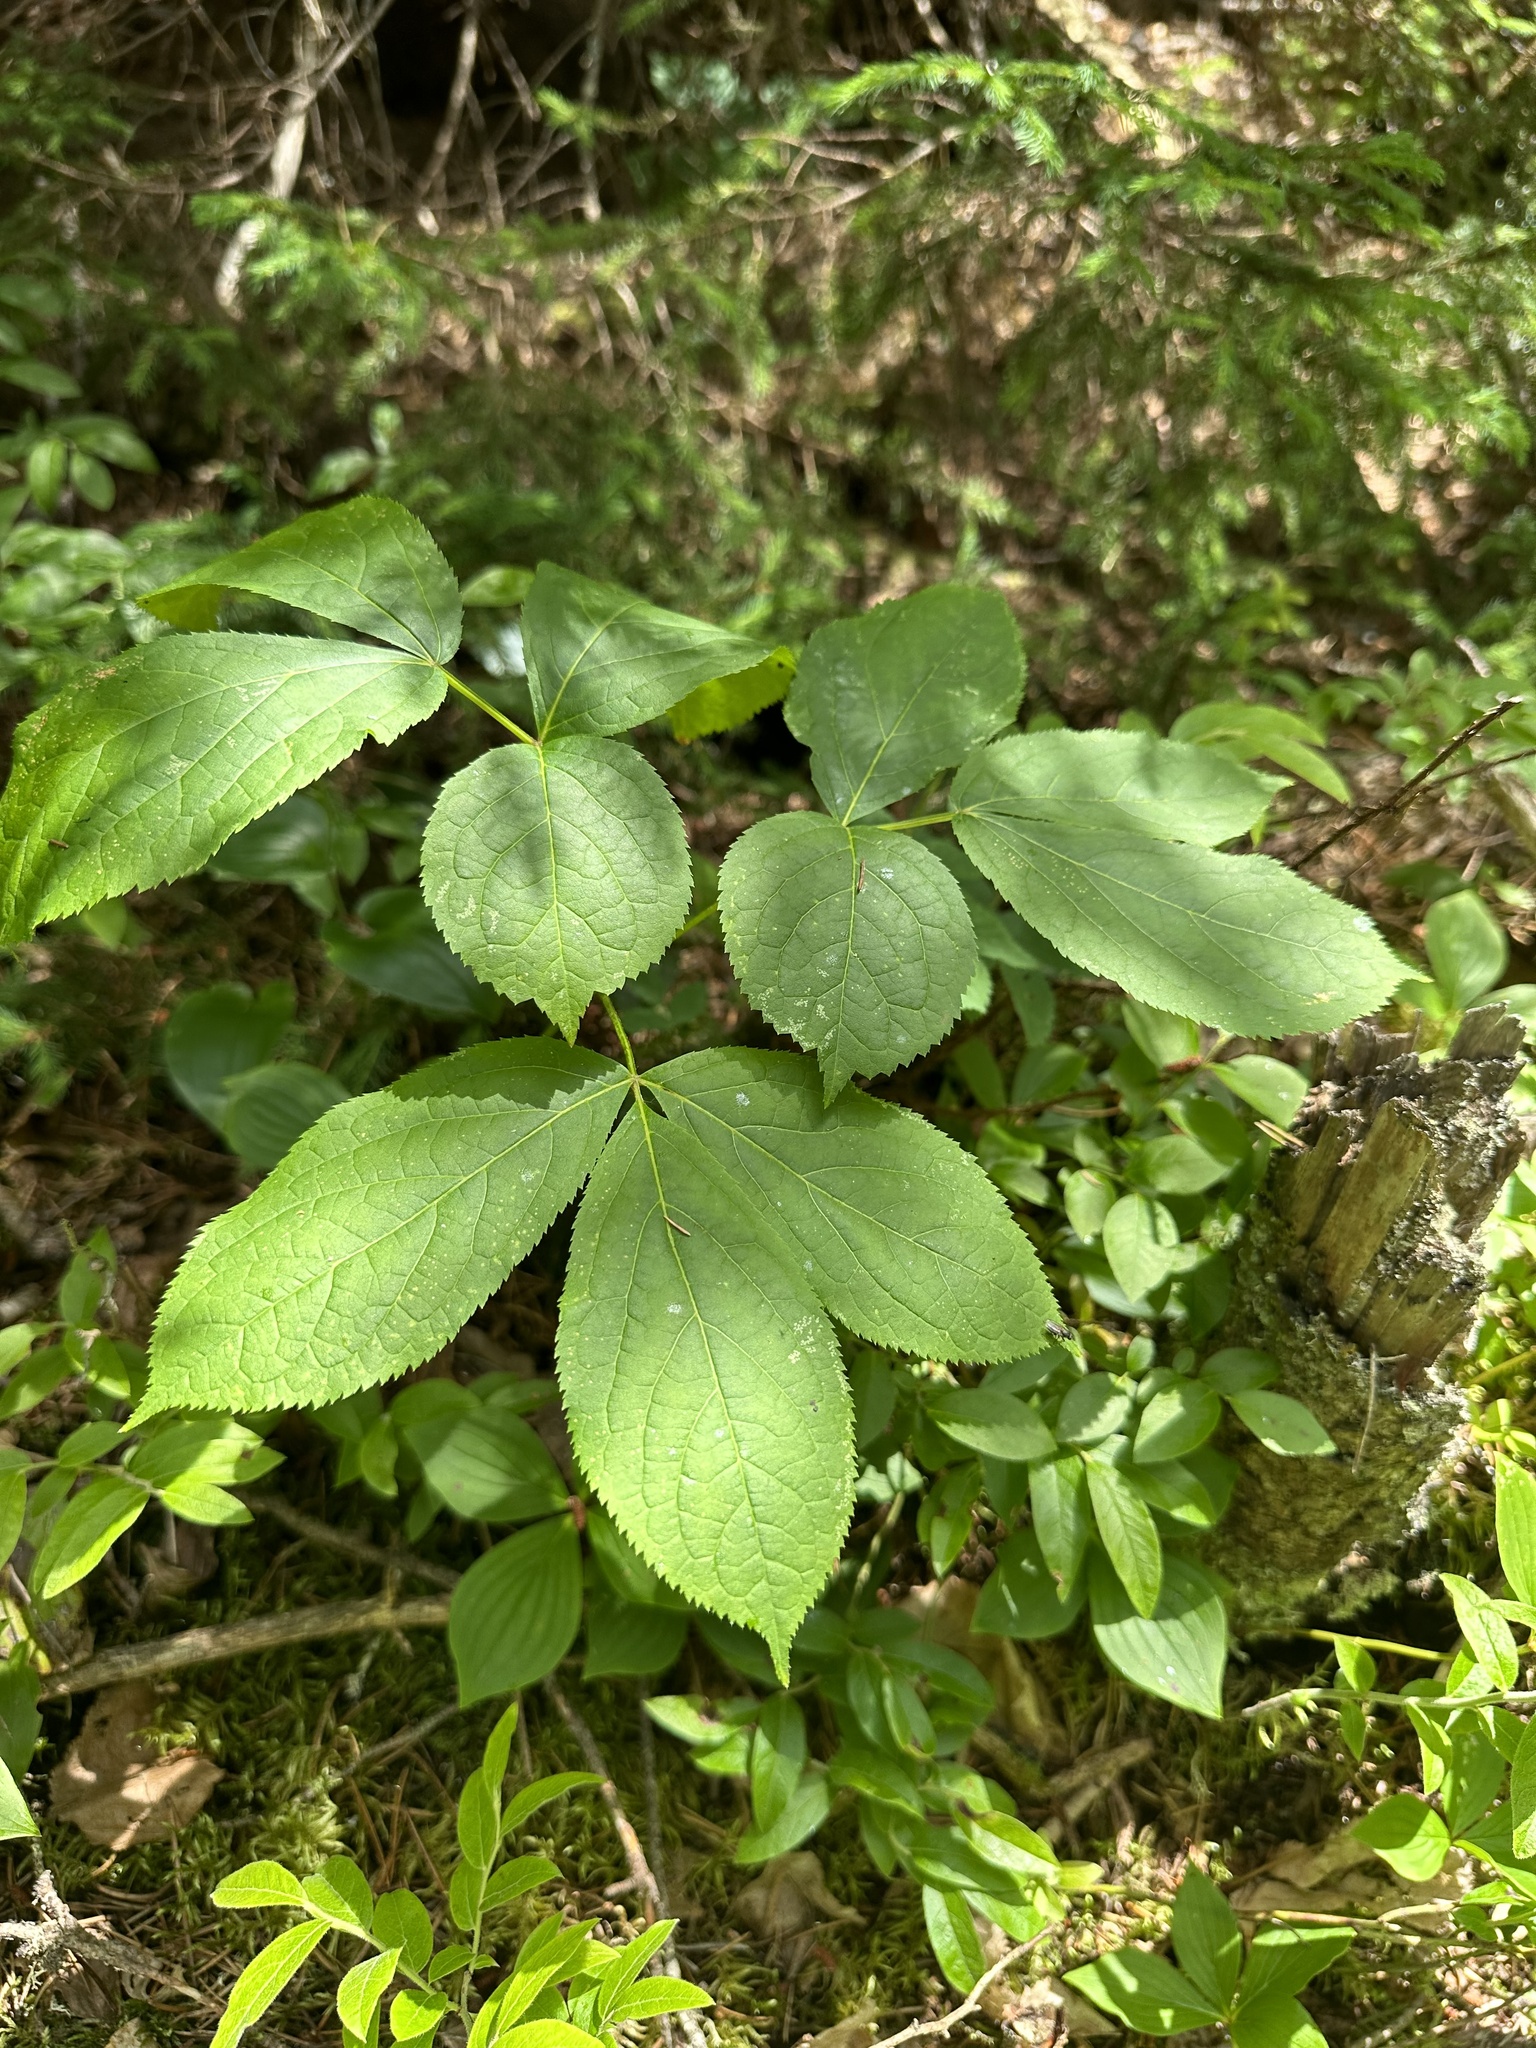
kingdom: Plantae
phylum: Tracheophyta
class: Magnoliopsida
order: Apiales
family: Araliaceae
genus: Aralia
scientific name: Aralia nudicaulis
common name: Wild sarsaparilla
